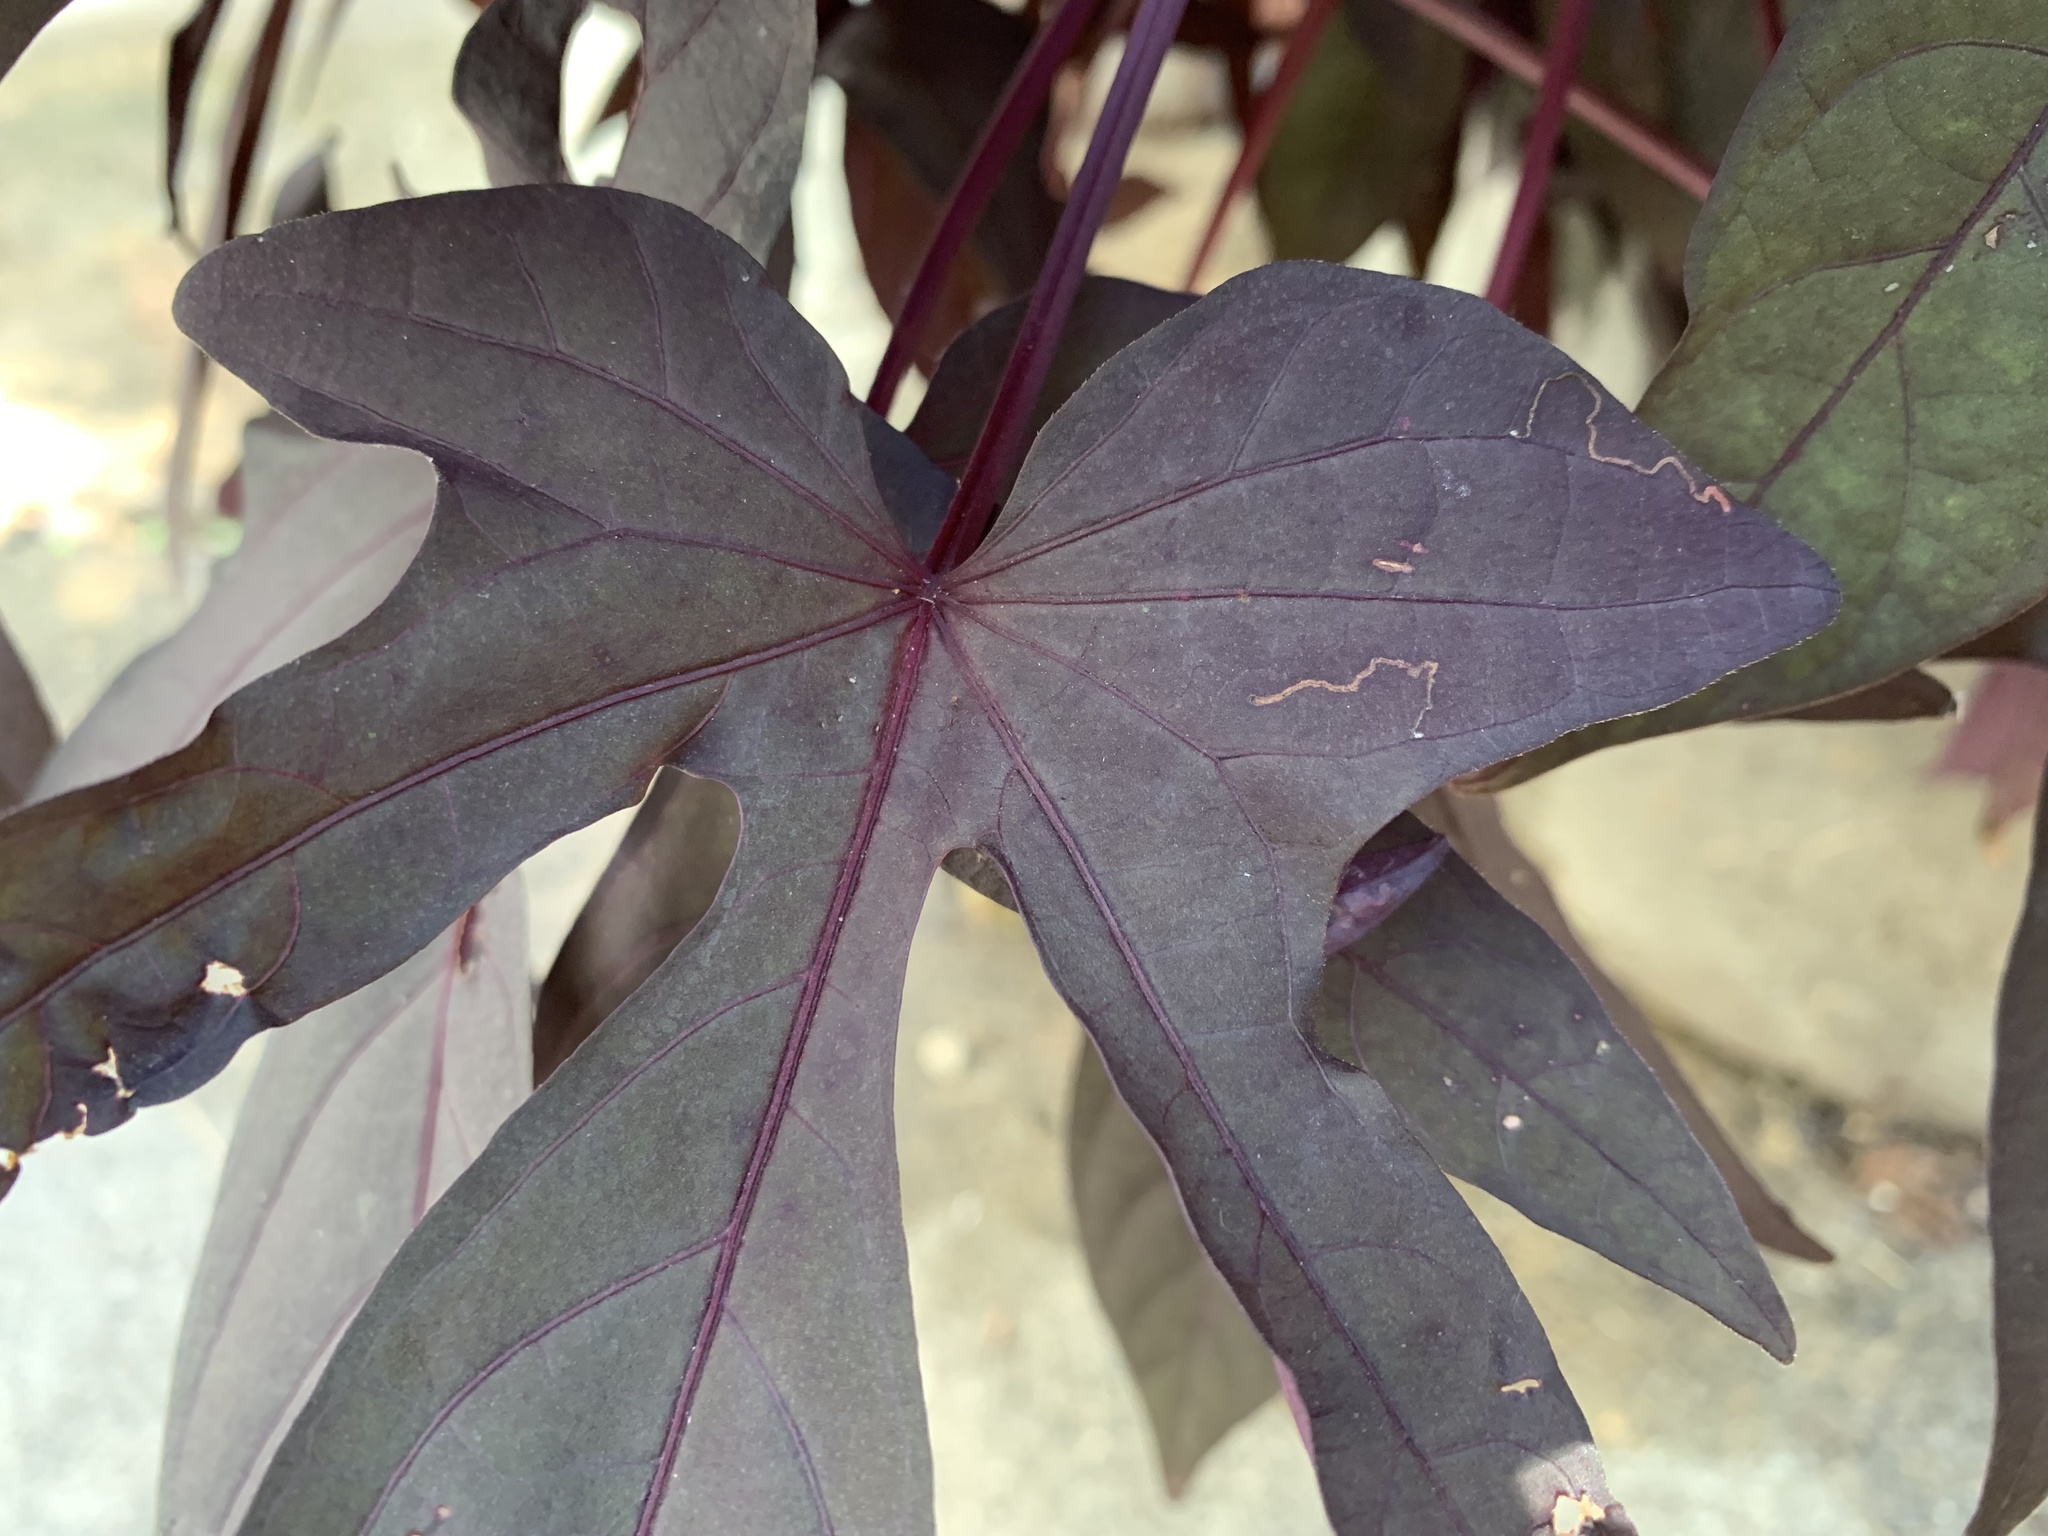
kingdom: Animalia
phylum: Arthropoda
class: Insecta
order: Lepidoptera
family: Bedelliidae
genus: Bedellia
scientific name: Bedellia somnulentella
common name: Morning-glory leafminer moth
